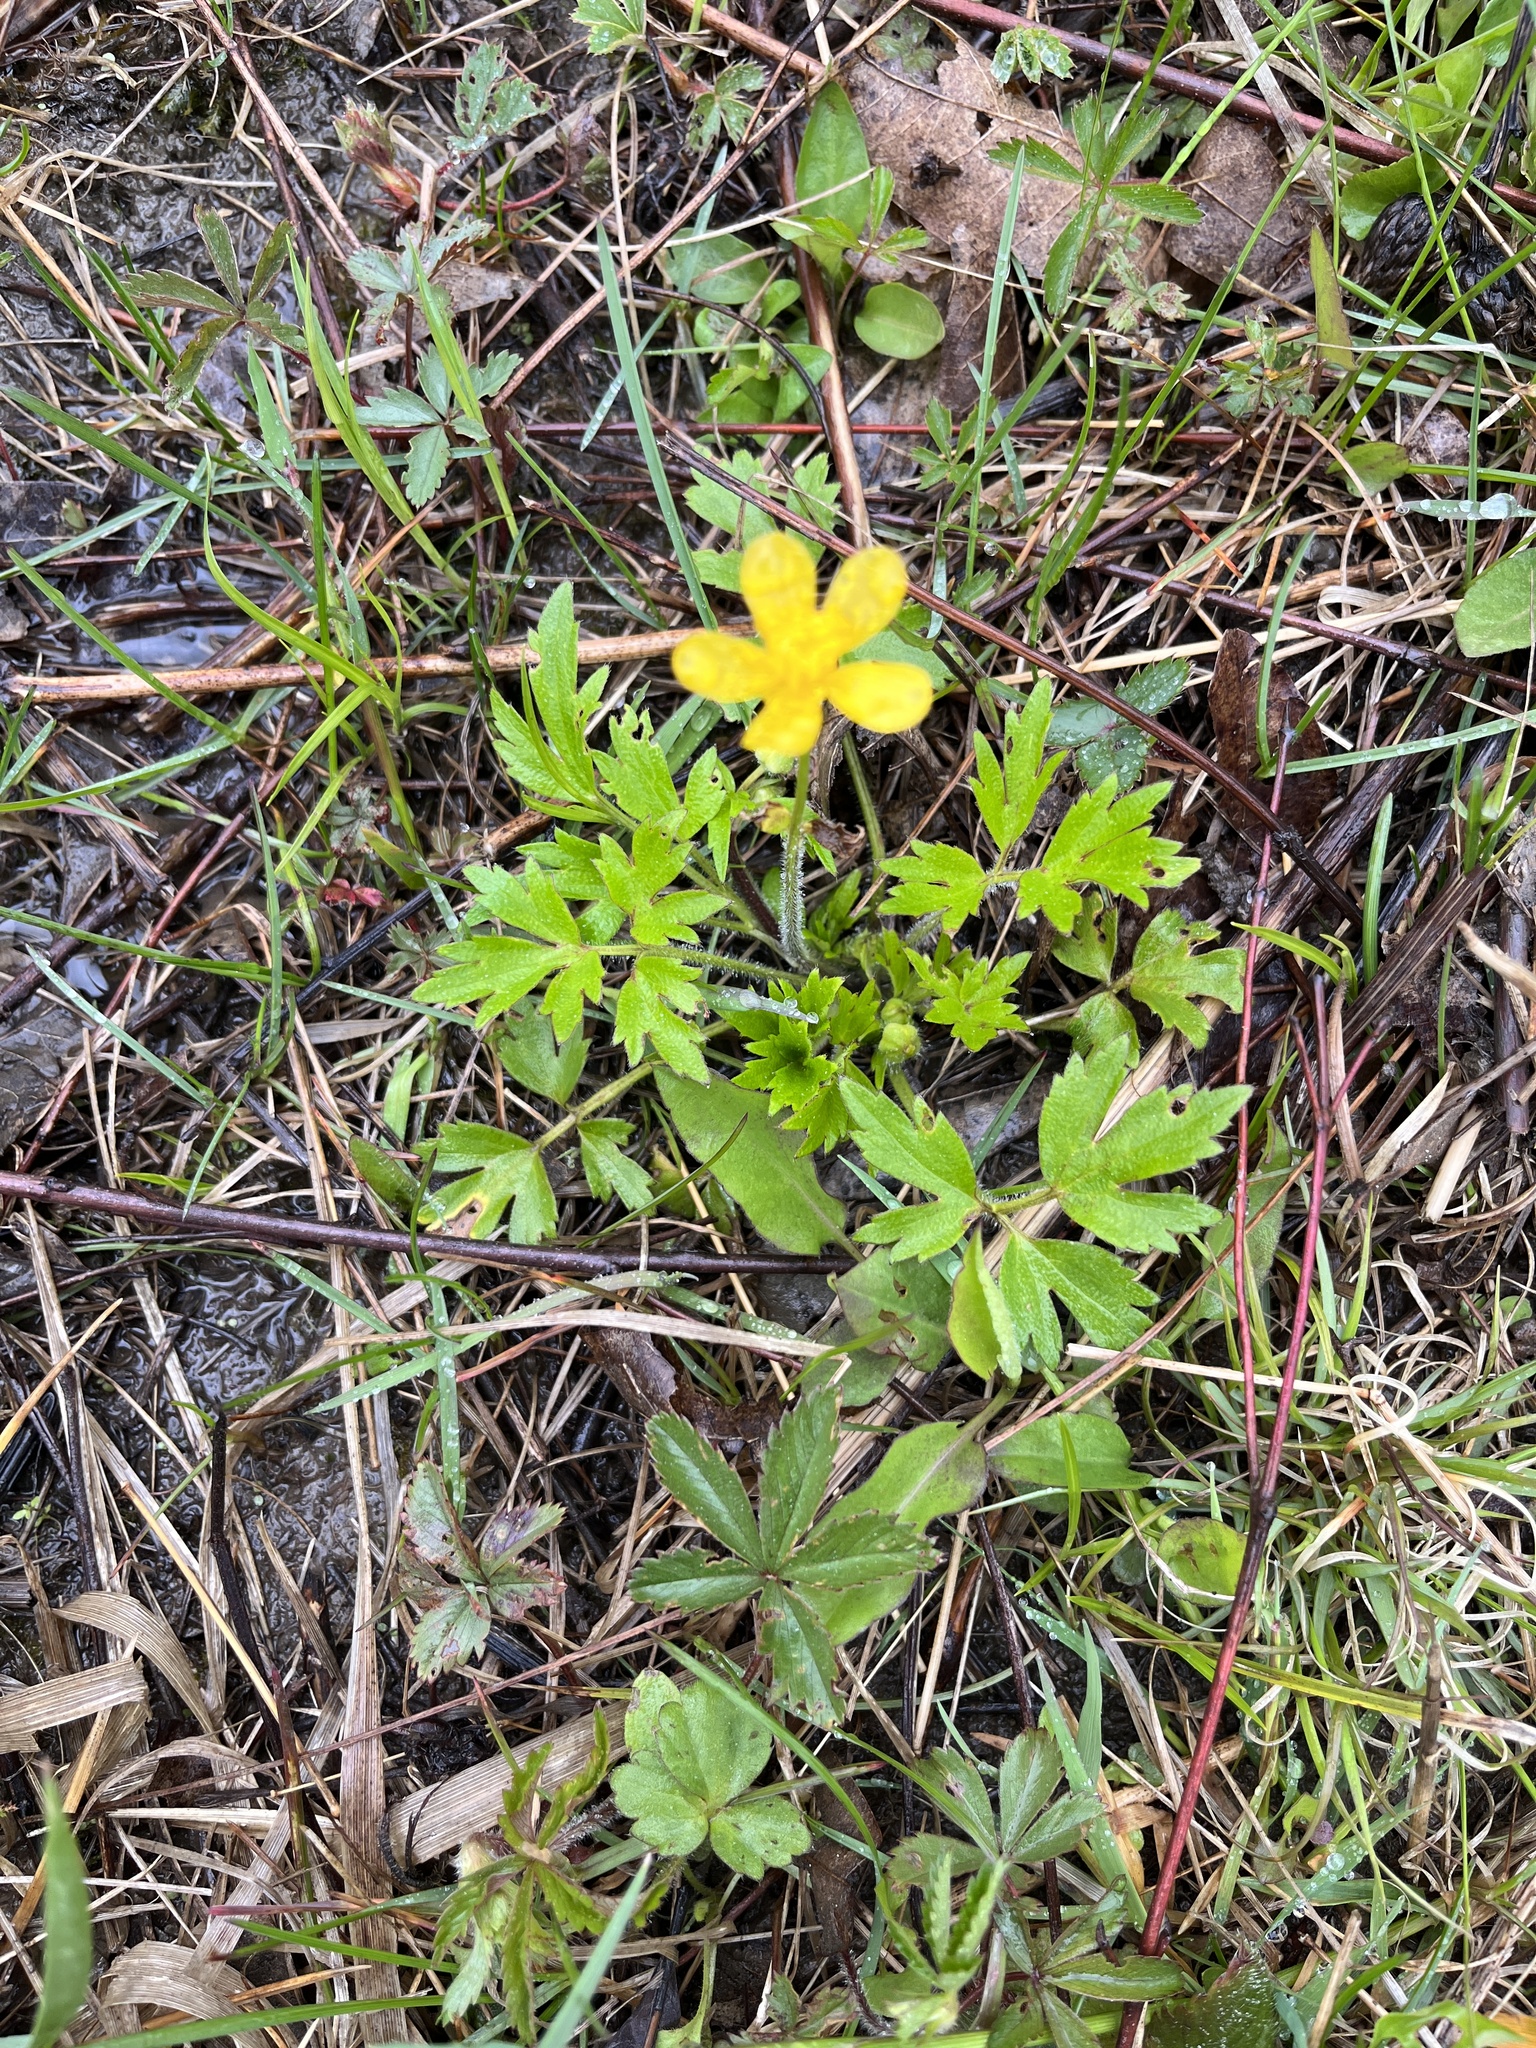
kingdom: Plantae
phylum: Tracheophyta
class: Magnoliopsida
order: Ranunculales
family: Ranunculaceae
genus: Ranunculus
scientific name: Ranunculus hispidus
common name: Bristly buttercup
